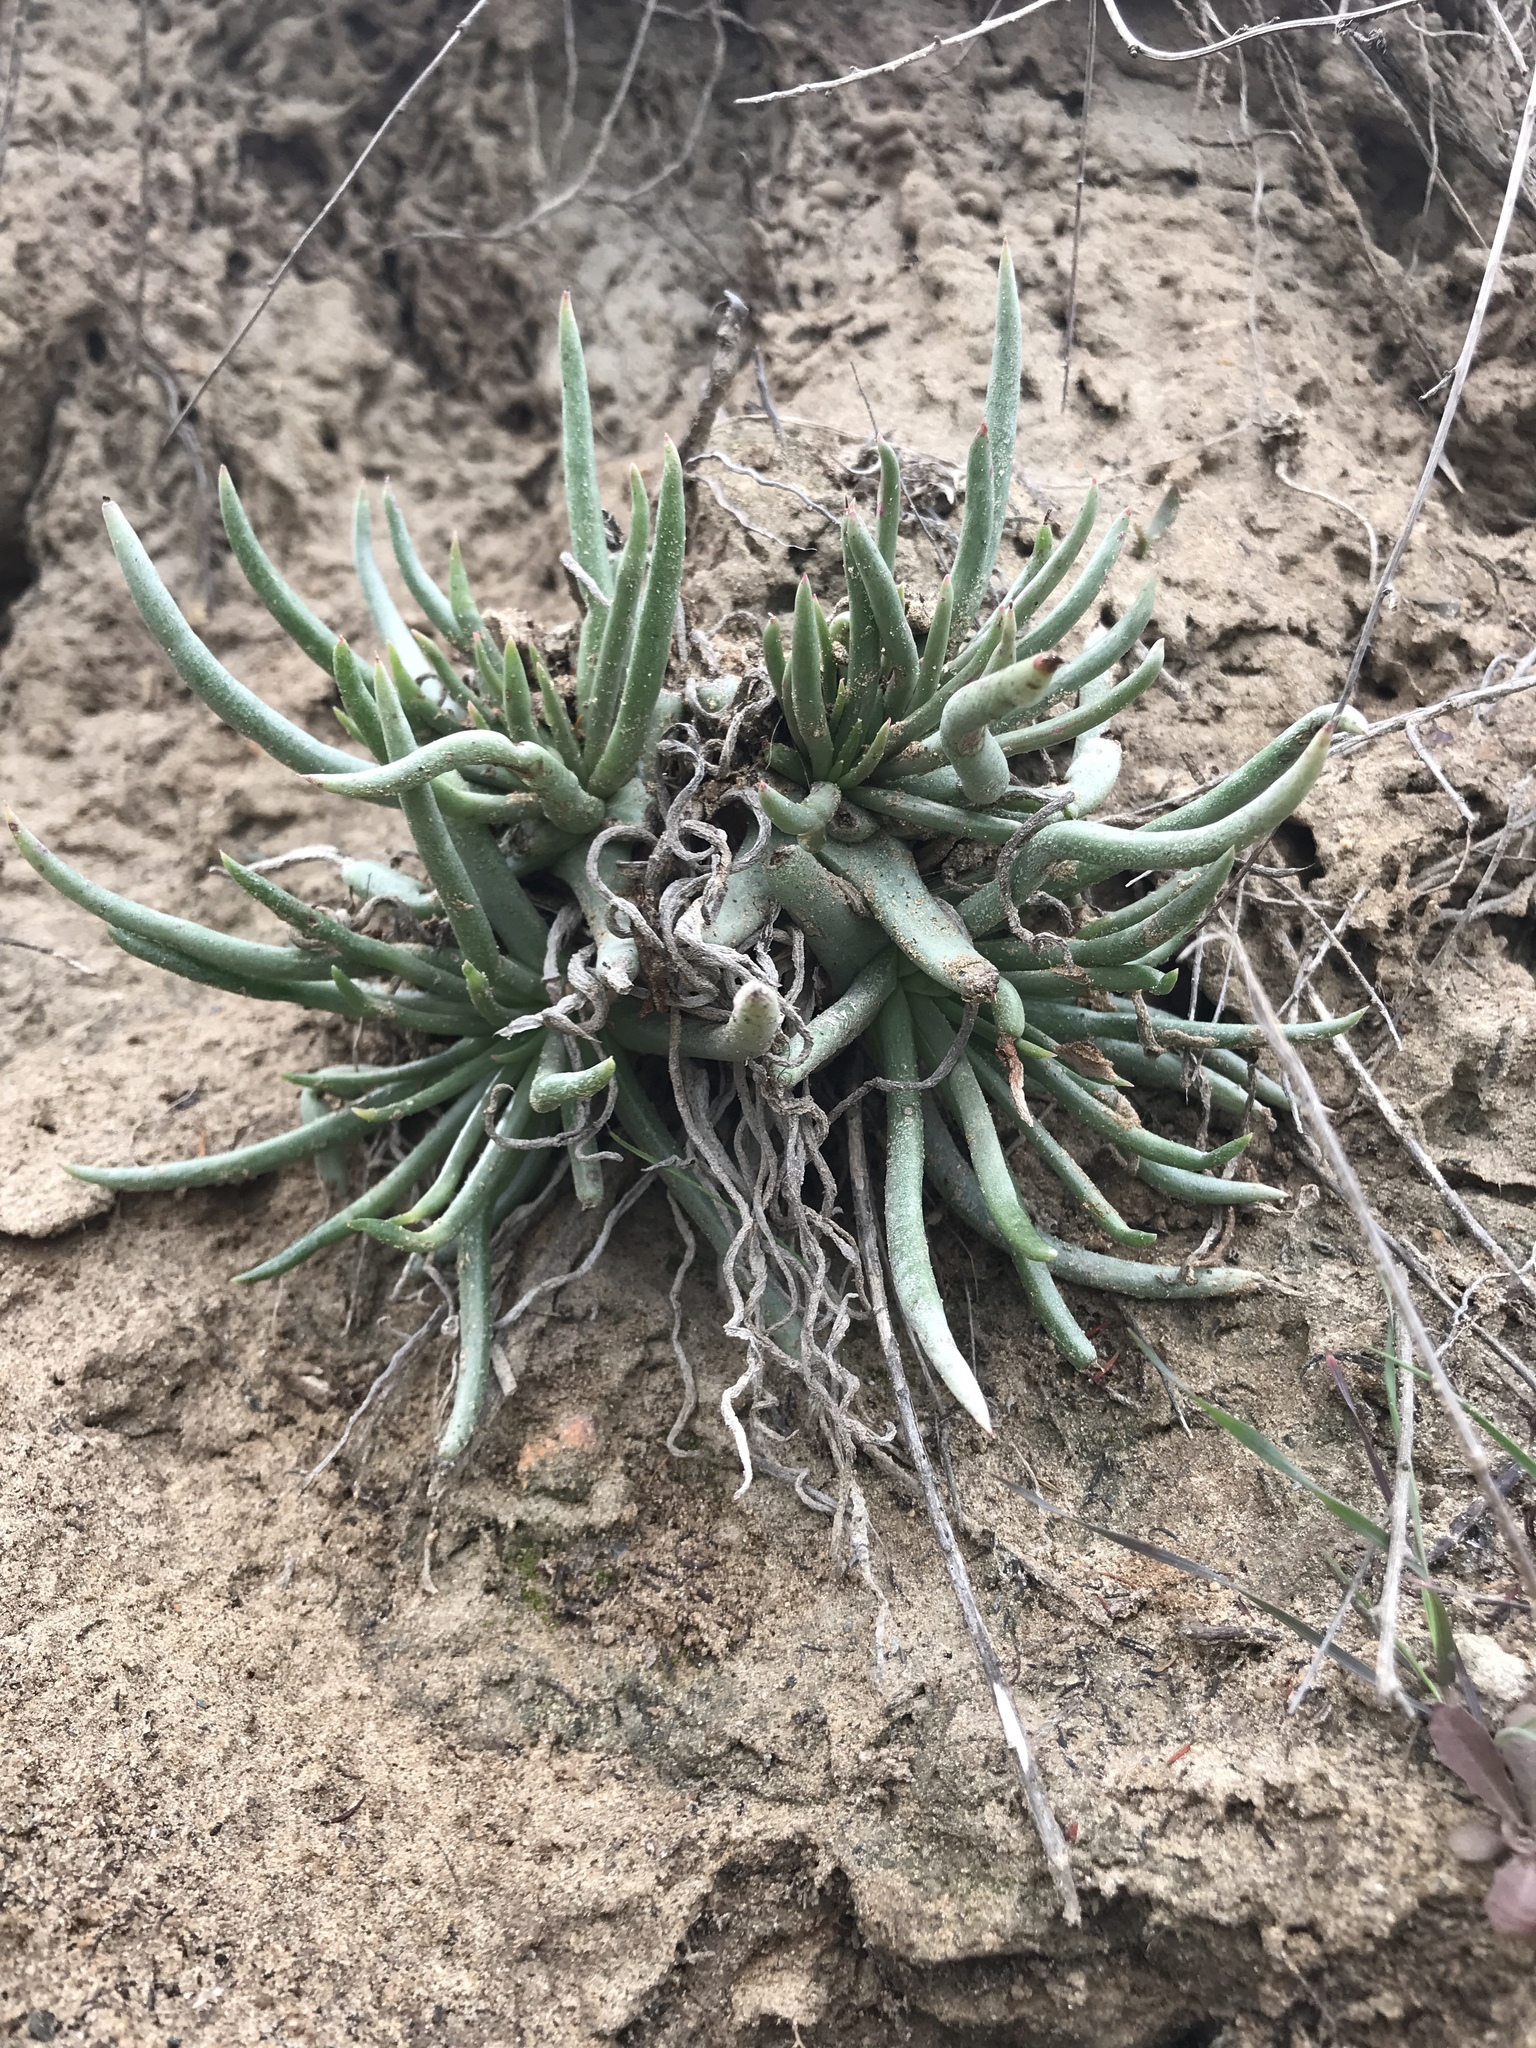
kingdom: Plantae
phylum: Tracheophyta
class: Magnoliopsida
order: Saxifragales
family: Crassulaceae
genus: Dudleya
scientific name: Dudleya edulis
